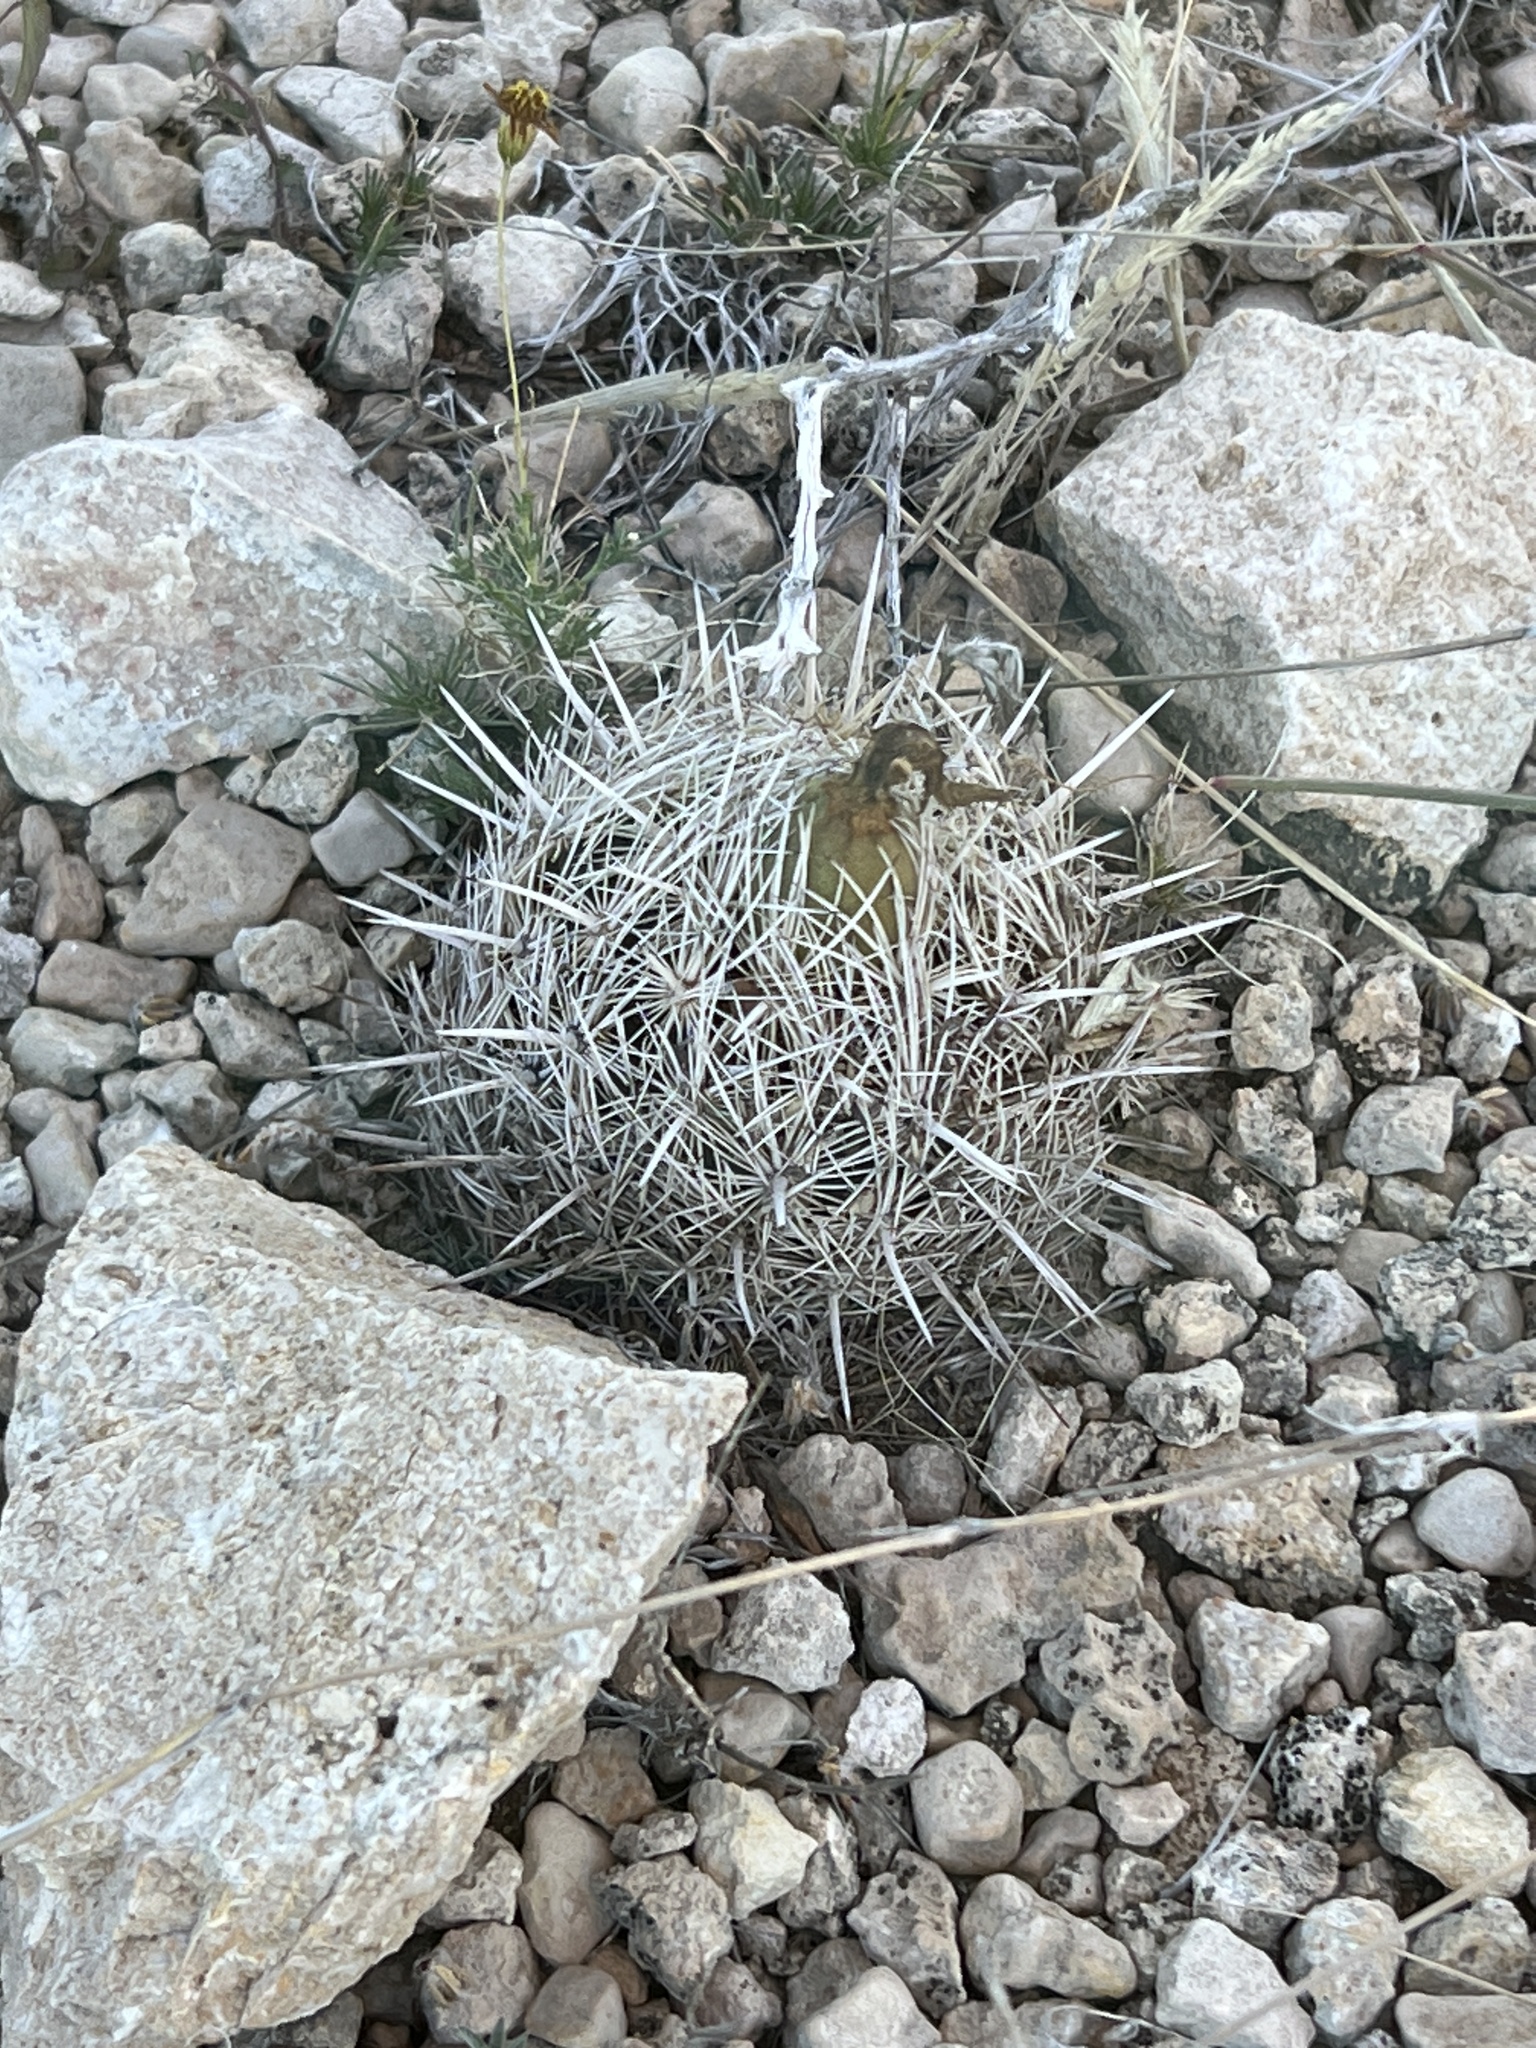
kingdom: Plantae
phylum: Tracheophyta
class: Magnoliopsida
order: Caryophyllales
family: Cactaceae
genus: Coryphantha
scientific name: Coryphantha echinus
